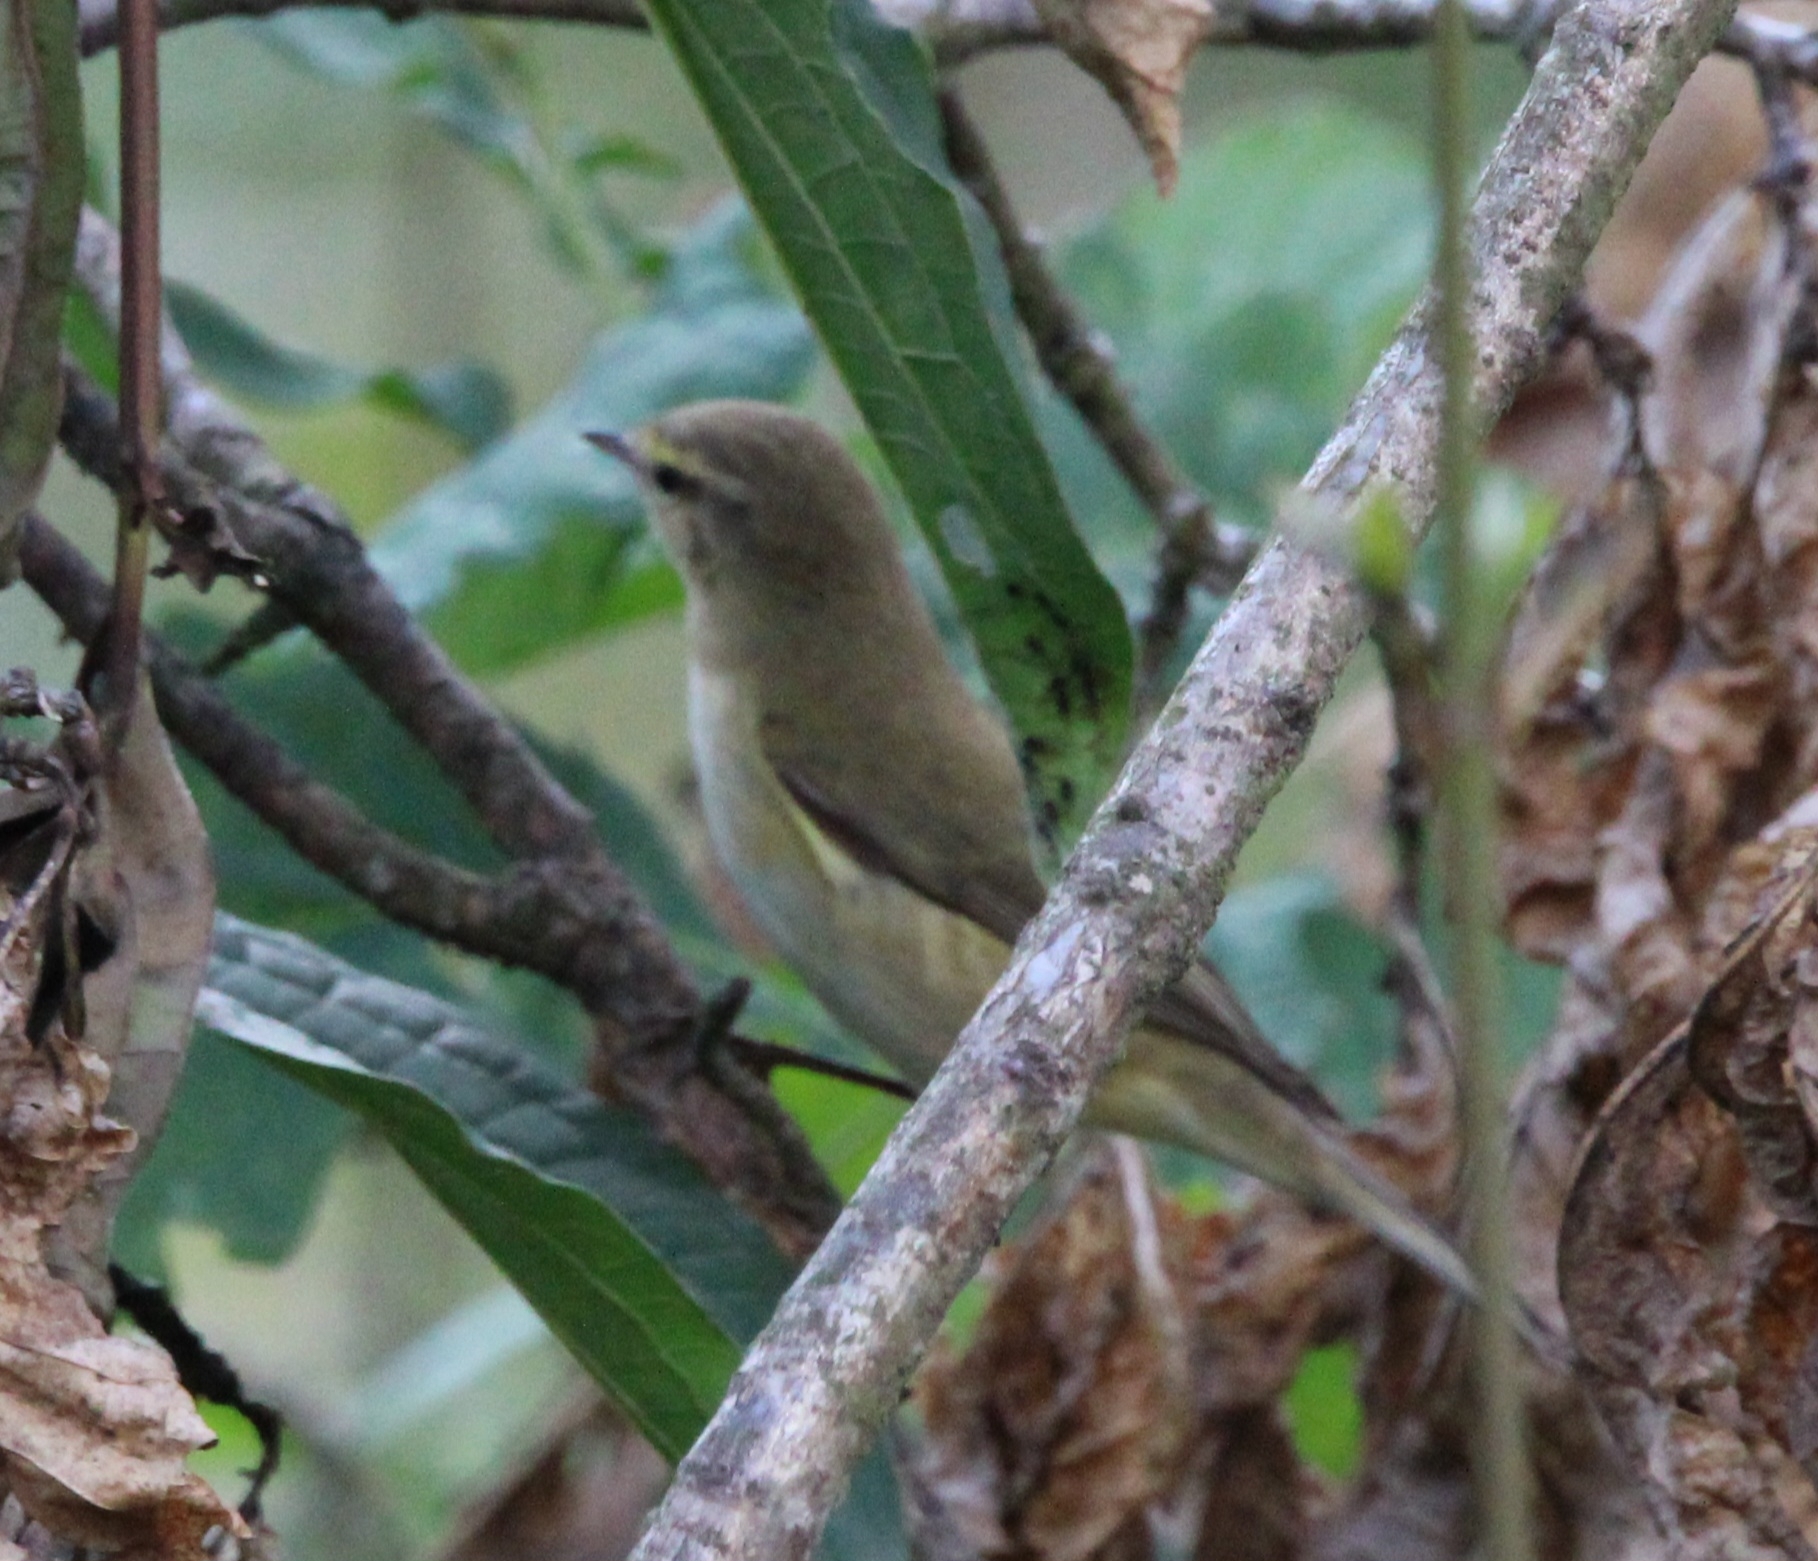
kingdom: Animalia
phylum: Chordata
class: Aves
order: Passeriformes
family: Phylloscopidae
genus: Phylloscopus
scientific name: Phylloscopus collybita
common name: Common chiffchaff
